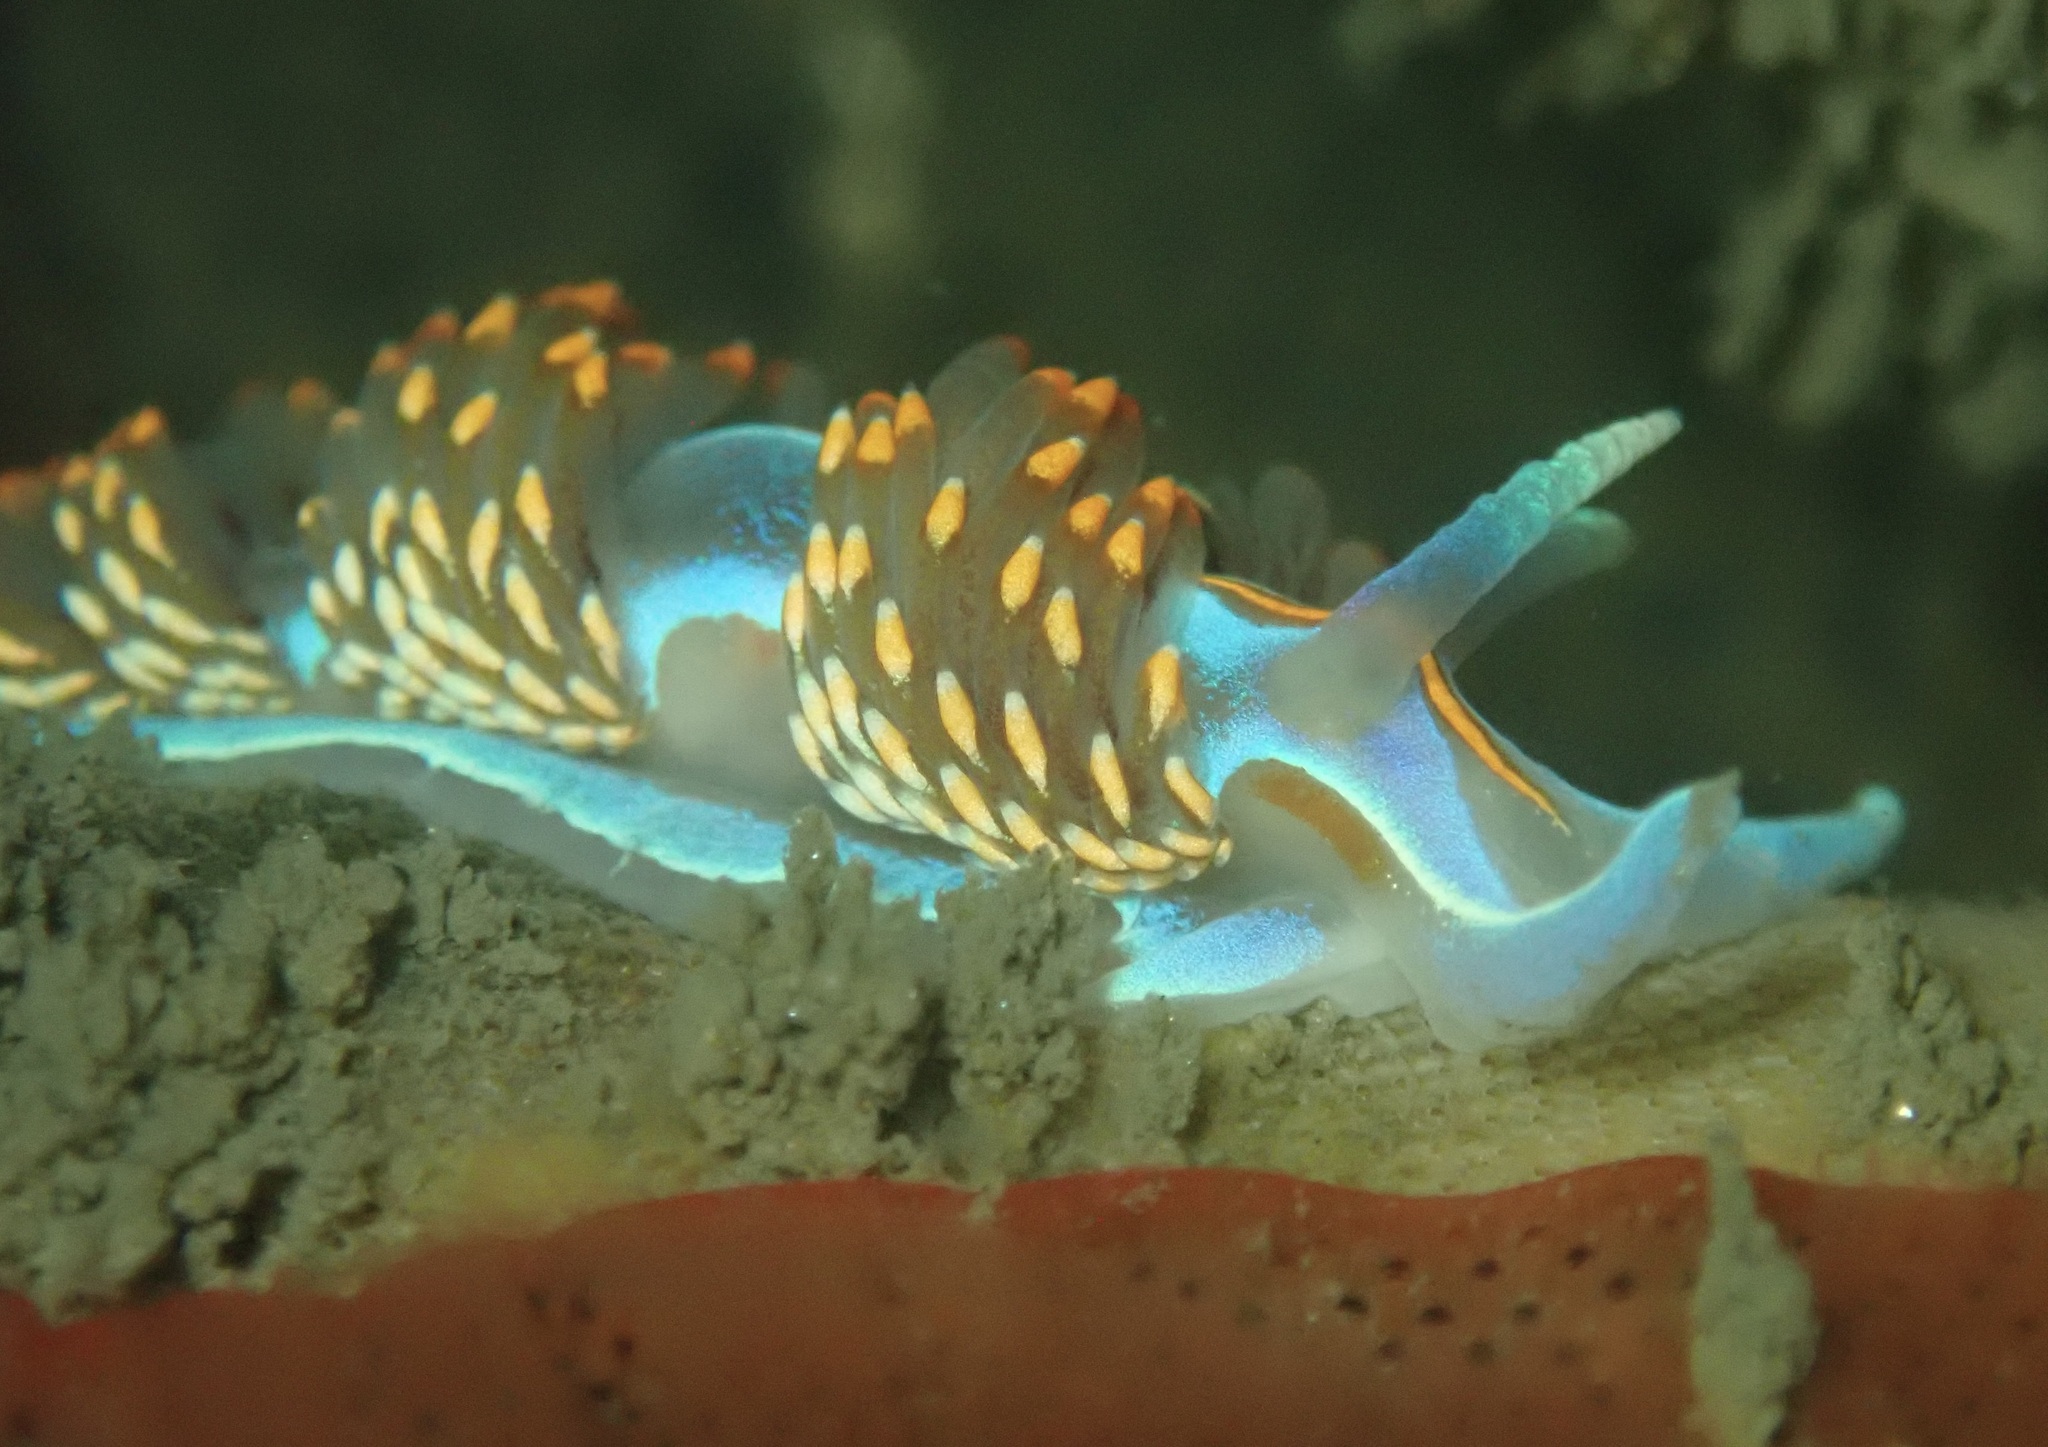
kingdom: Animalia
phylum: Mollusca
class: Gastropoda
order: Nudibranchia
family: Myrrhinidae
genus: Hermissenda
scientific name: Hermissenda opalescens
